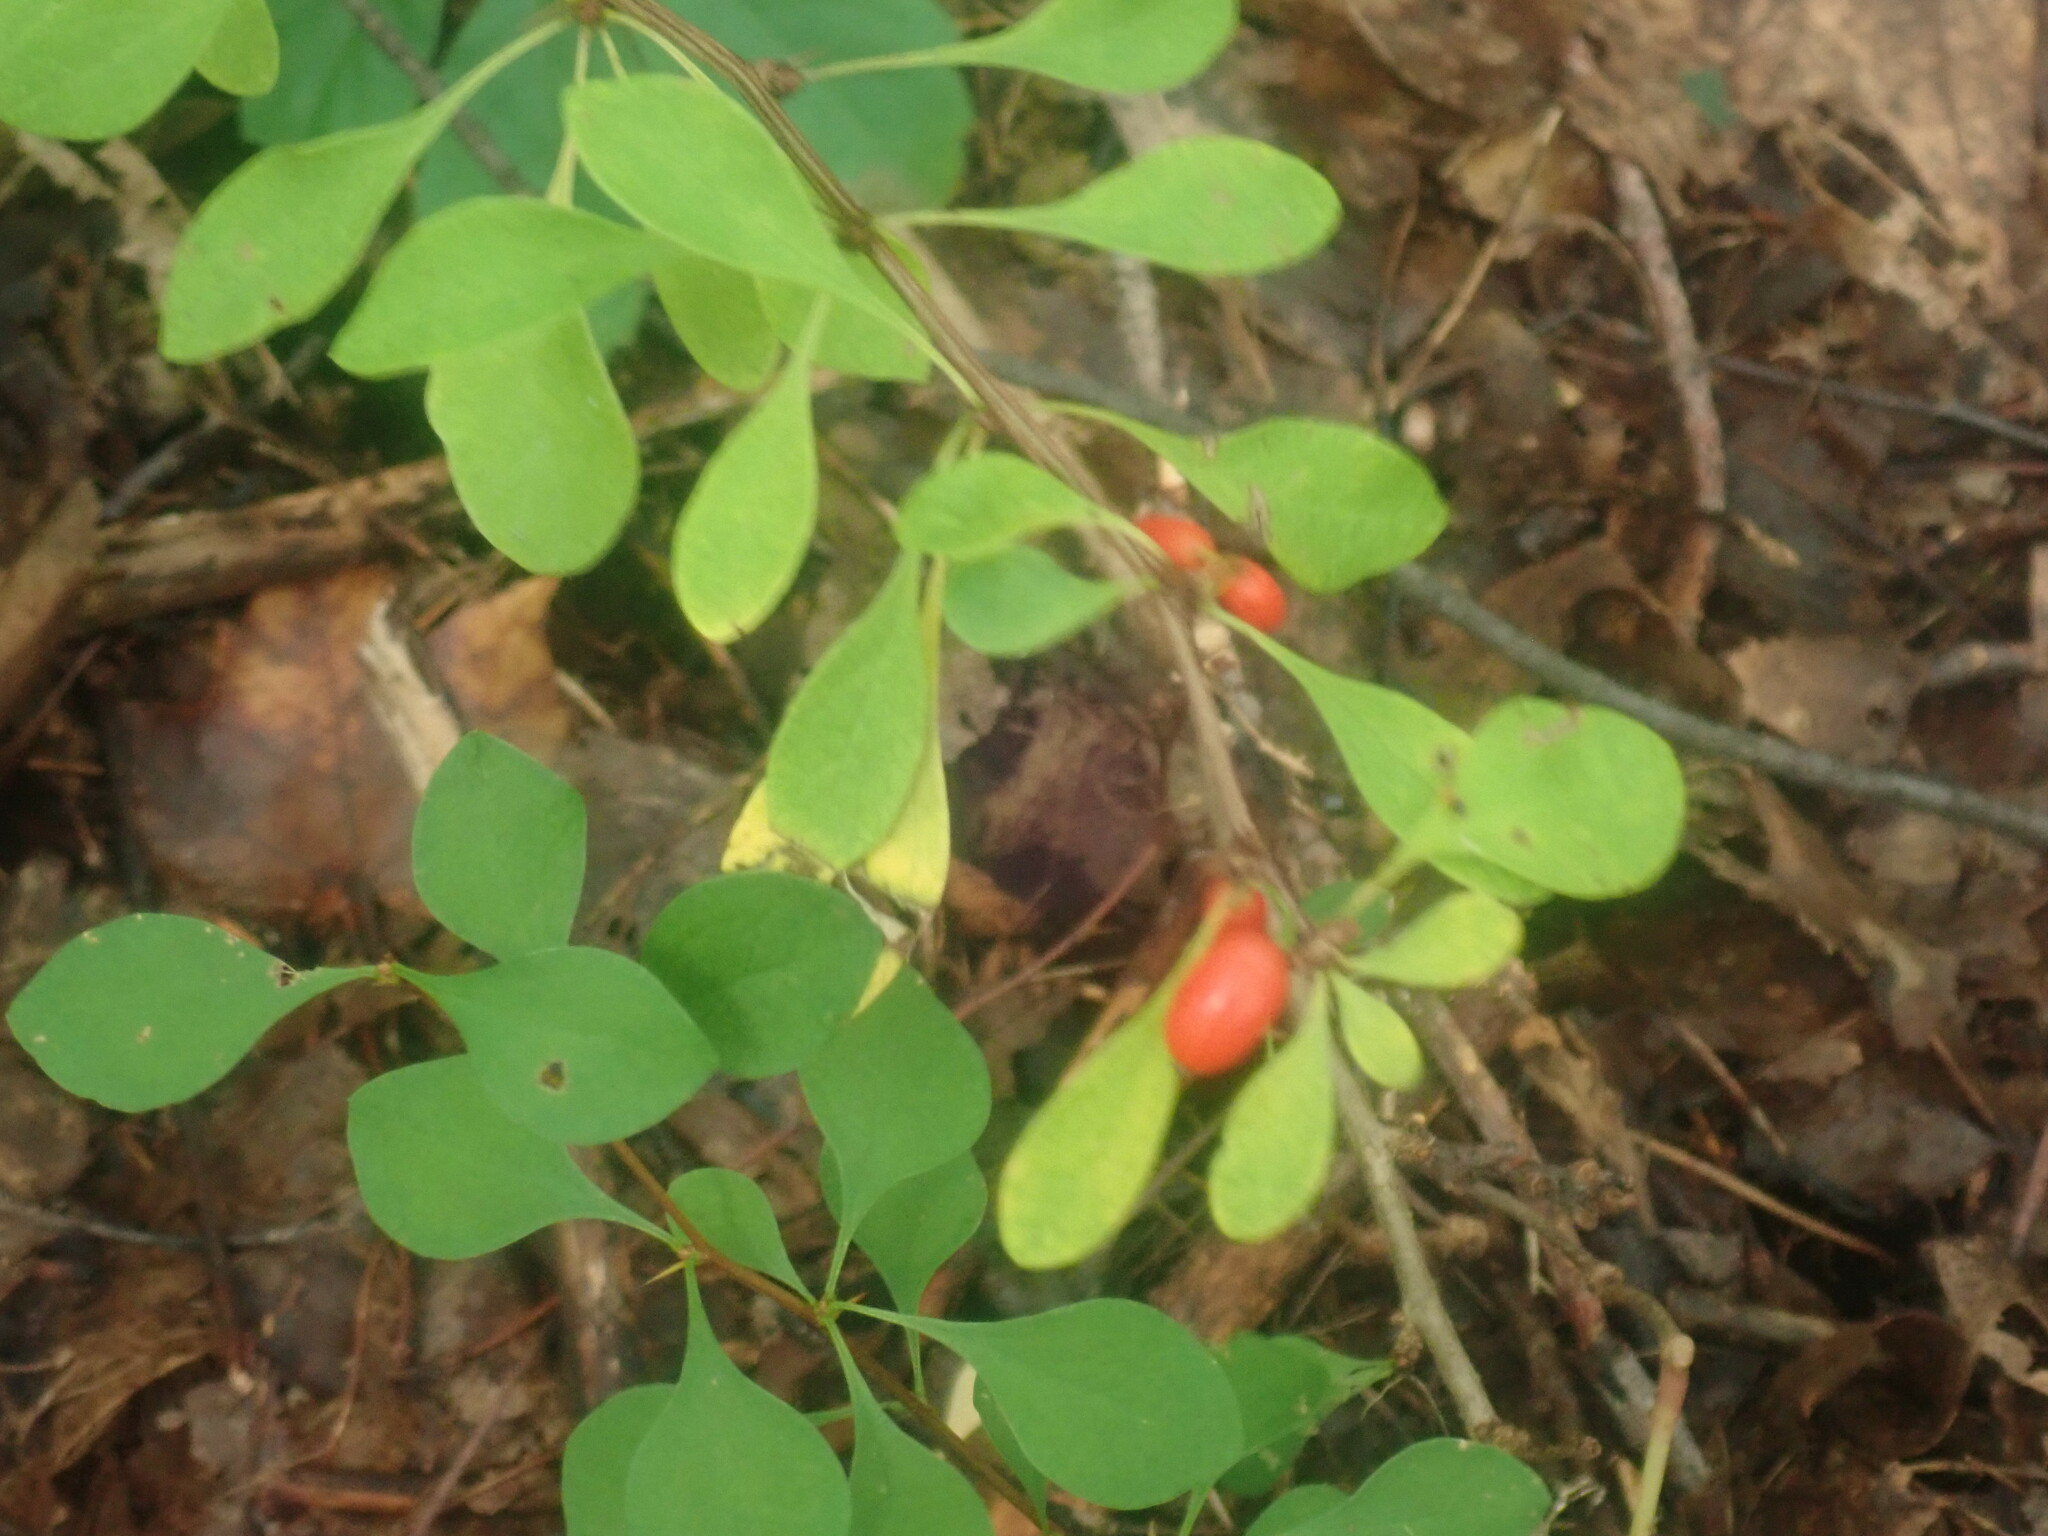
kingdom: Plantae
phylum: Tracheophyta
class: Magnoliopsida
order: Ranunculales
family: Berberidaceae
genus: Berberis
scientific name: Berberis thunbergii
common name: Japanese barberry
